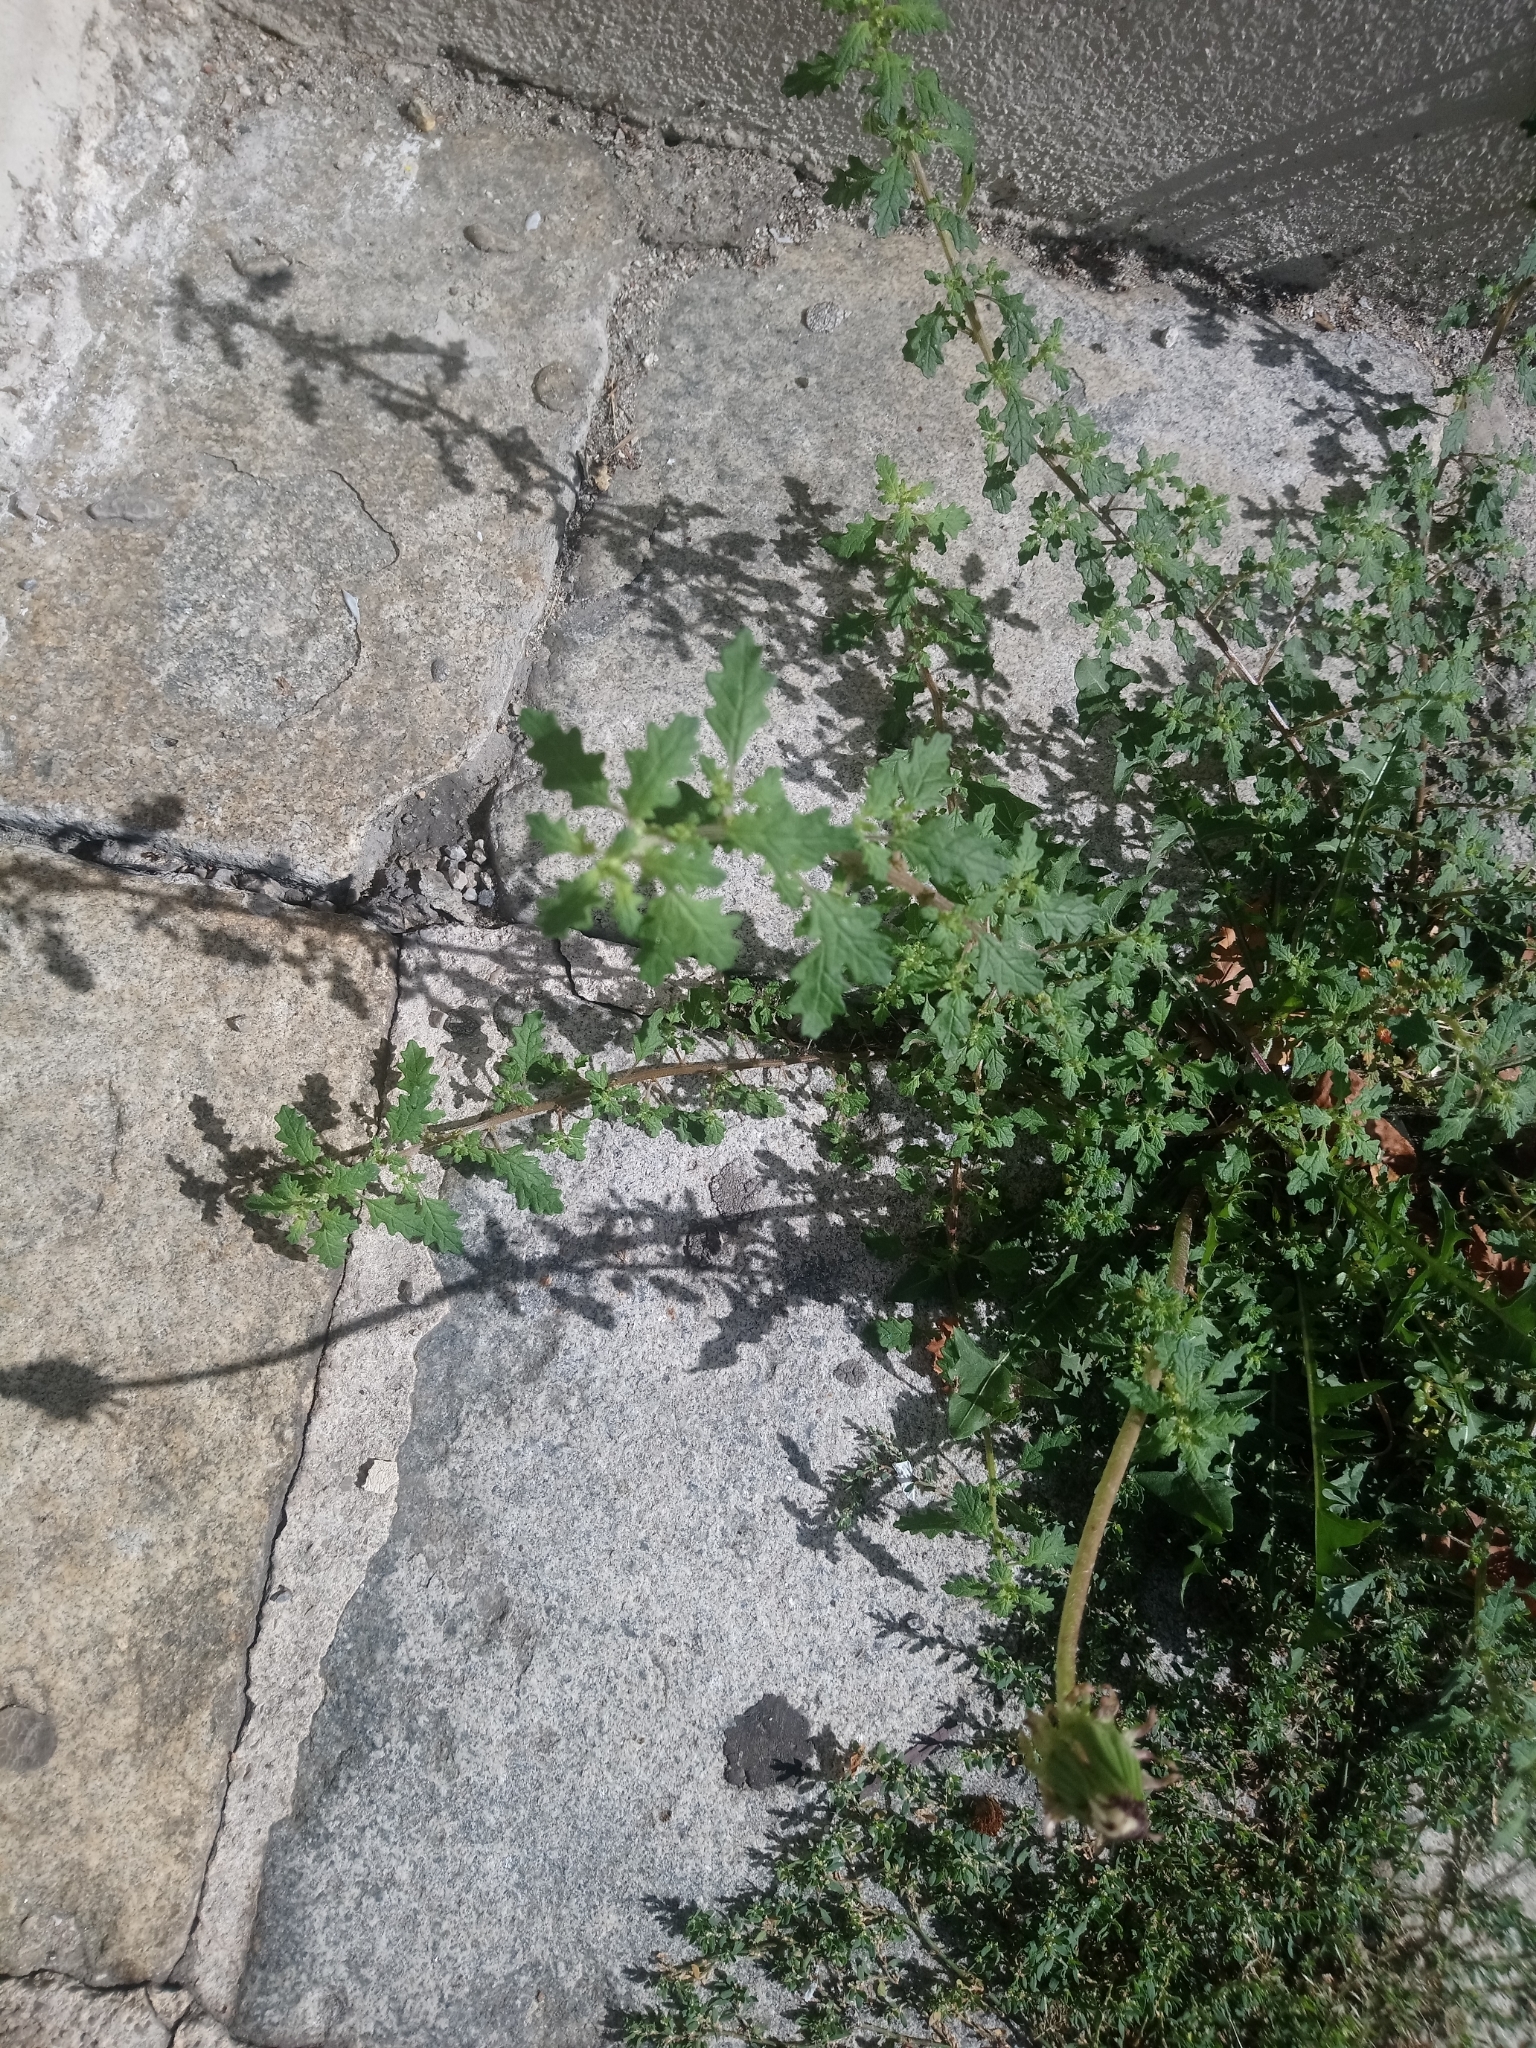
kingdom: Plantae
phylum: Tracheophyta
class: Magnoliopsida
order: Caryophyllales
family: Amaranthaceae
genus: Dysphania
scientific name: Dysphania pumilio
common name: Clammy goosefoot
